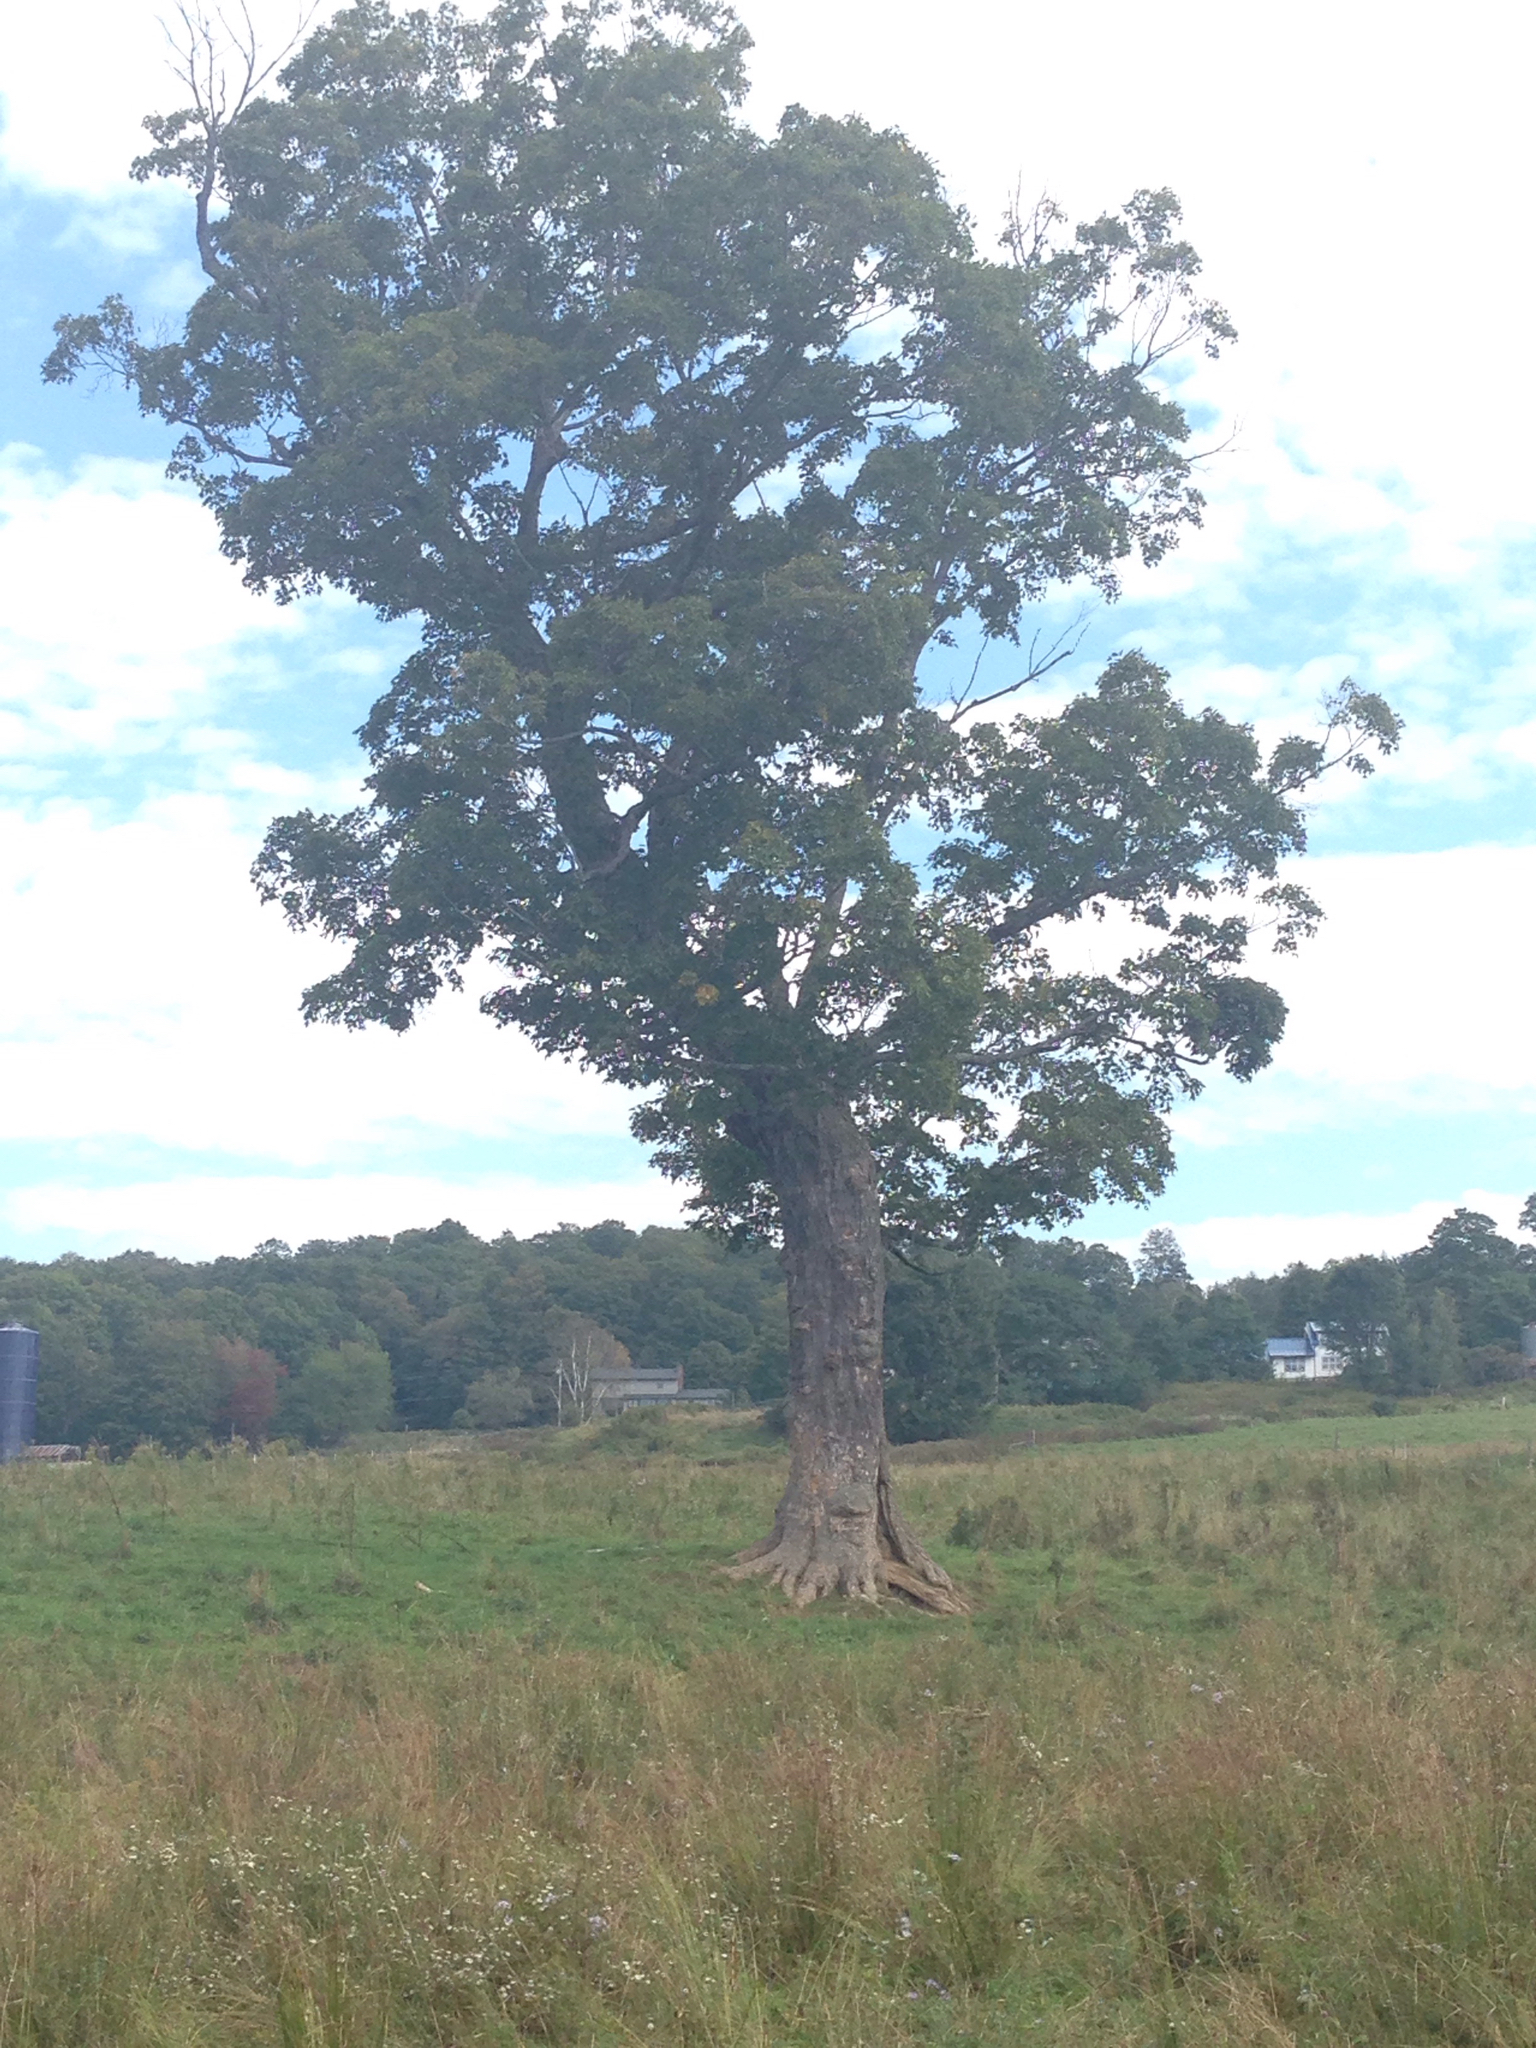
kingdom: Plantae
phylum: Tracheophyta
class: Magnoliopsida
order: Sapindales
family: Sapindaceae
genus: Acer
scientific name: Acer saccharum
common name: Sugar maple
